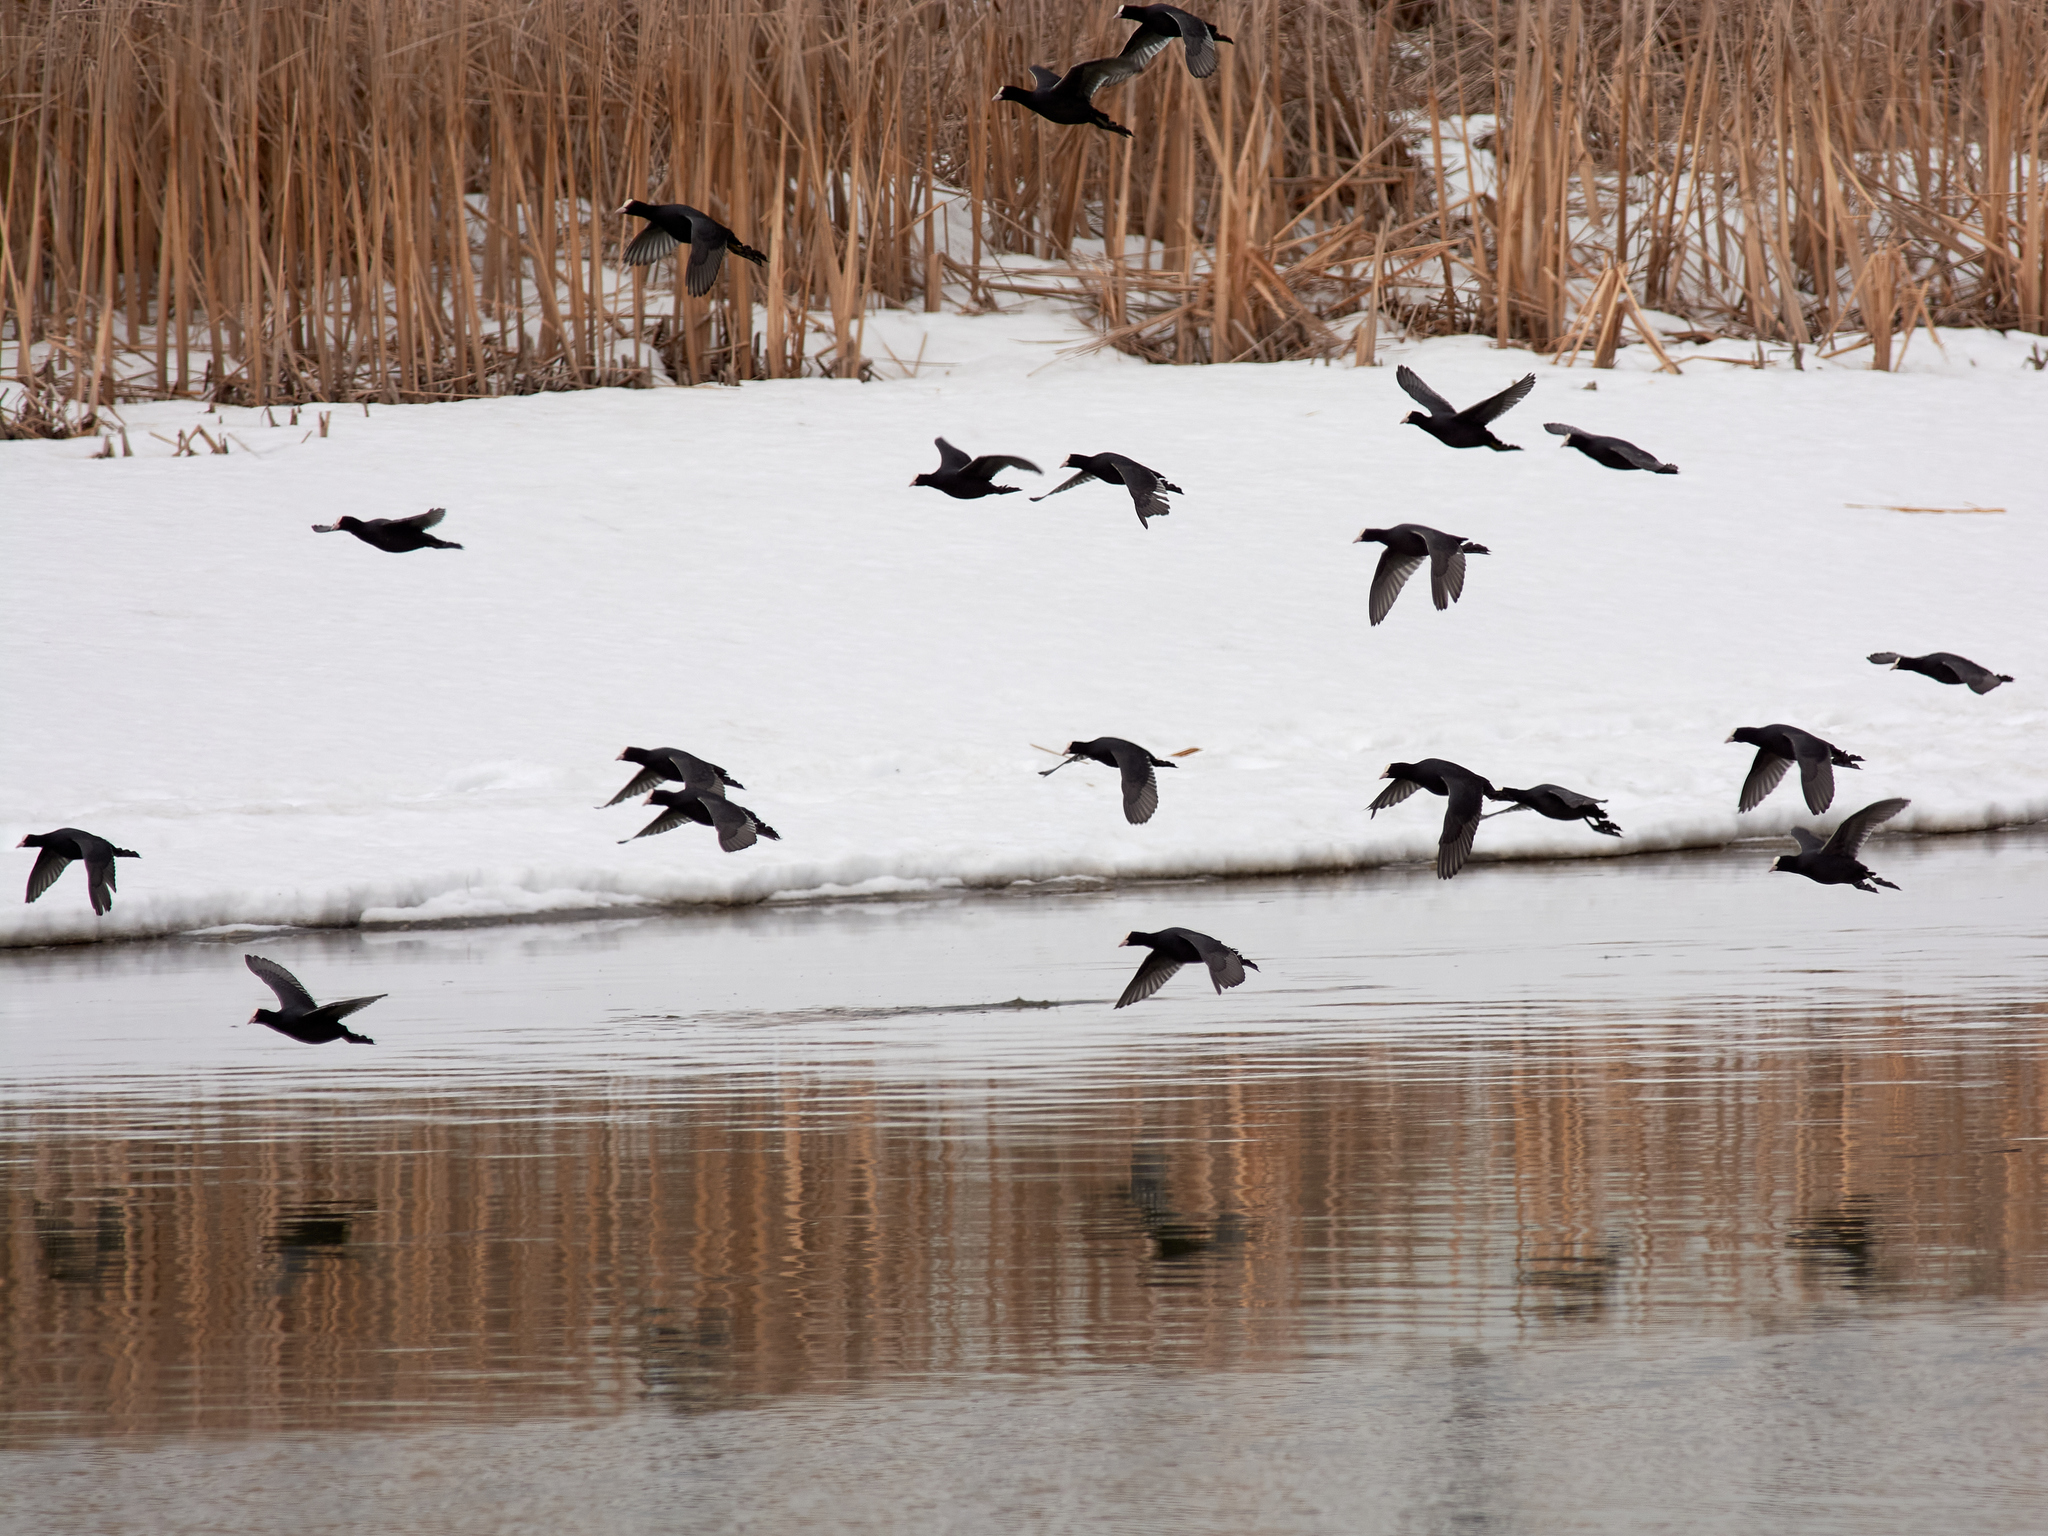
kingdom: Animalia
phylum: Chordata
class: Aves
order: Gruiformes
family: Rallidae
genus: Fulica
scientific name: Fulica atra
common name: Eurasian coot
